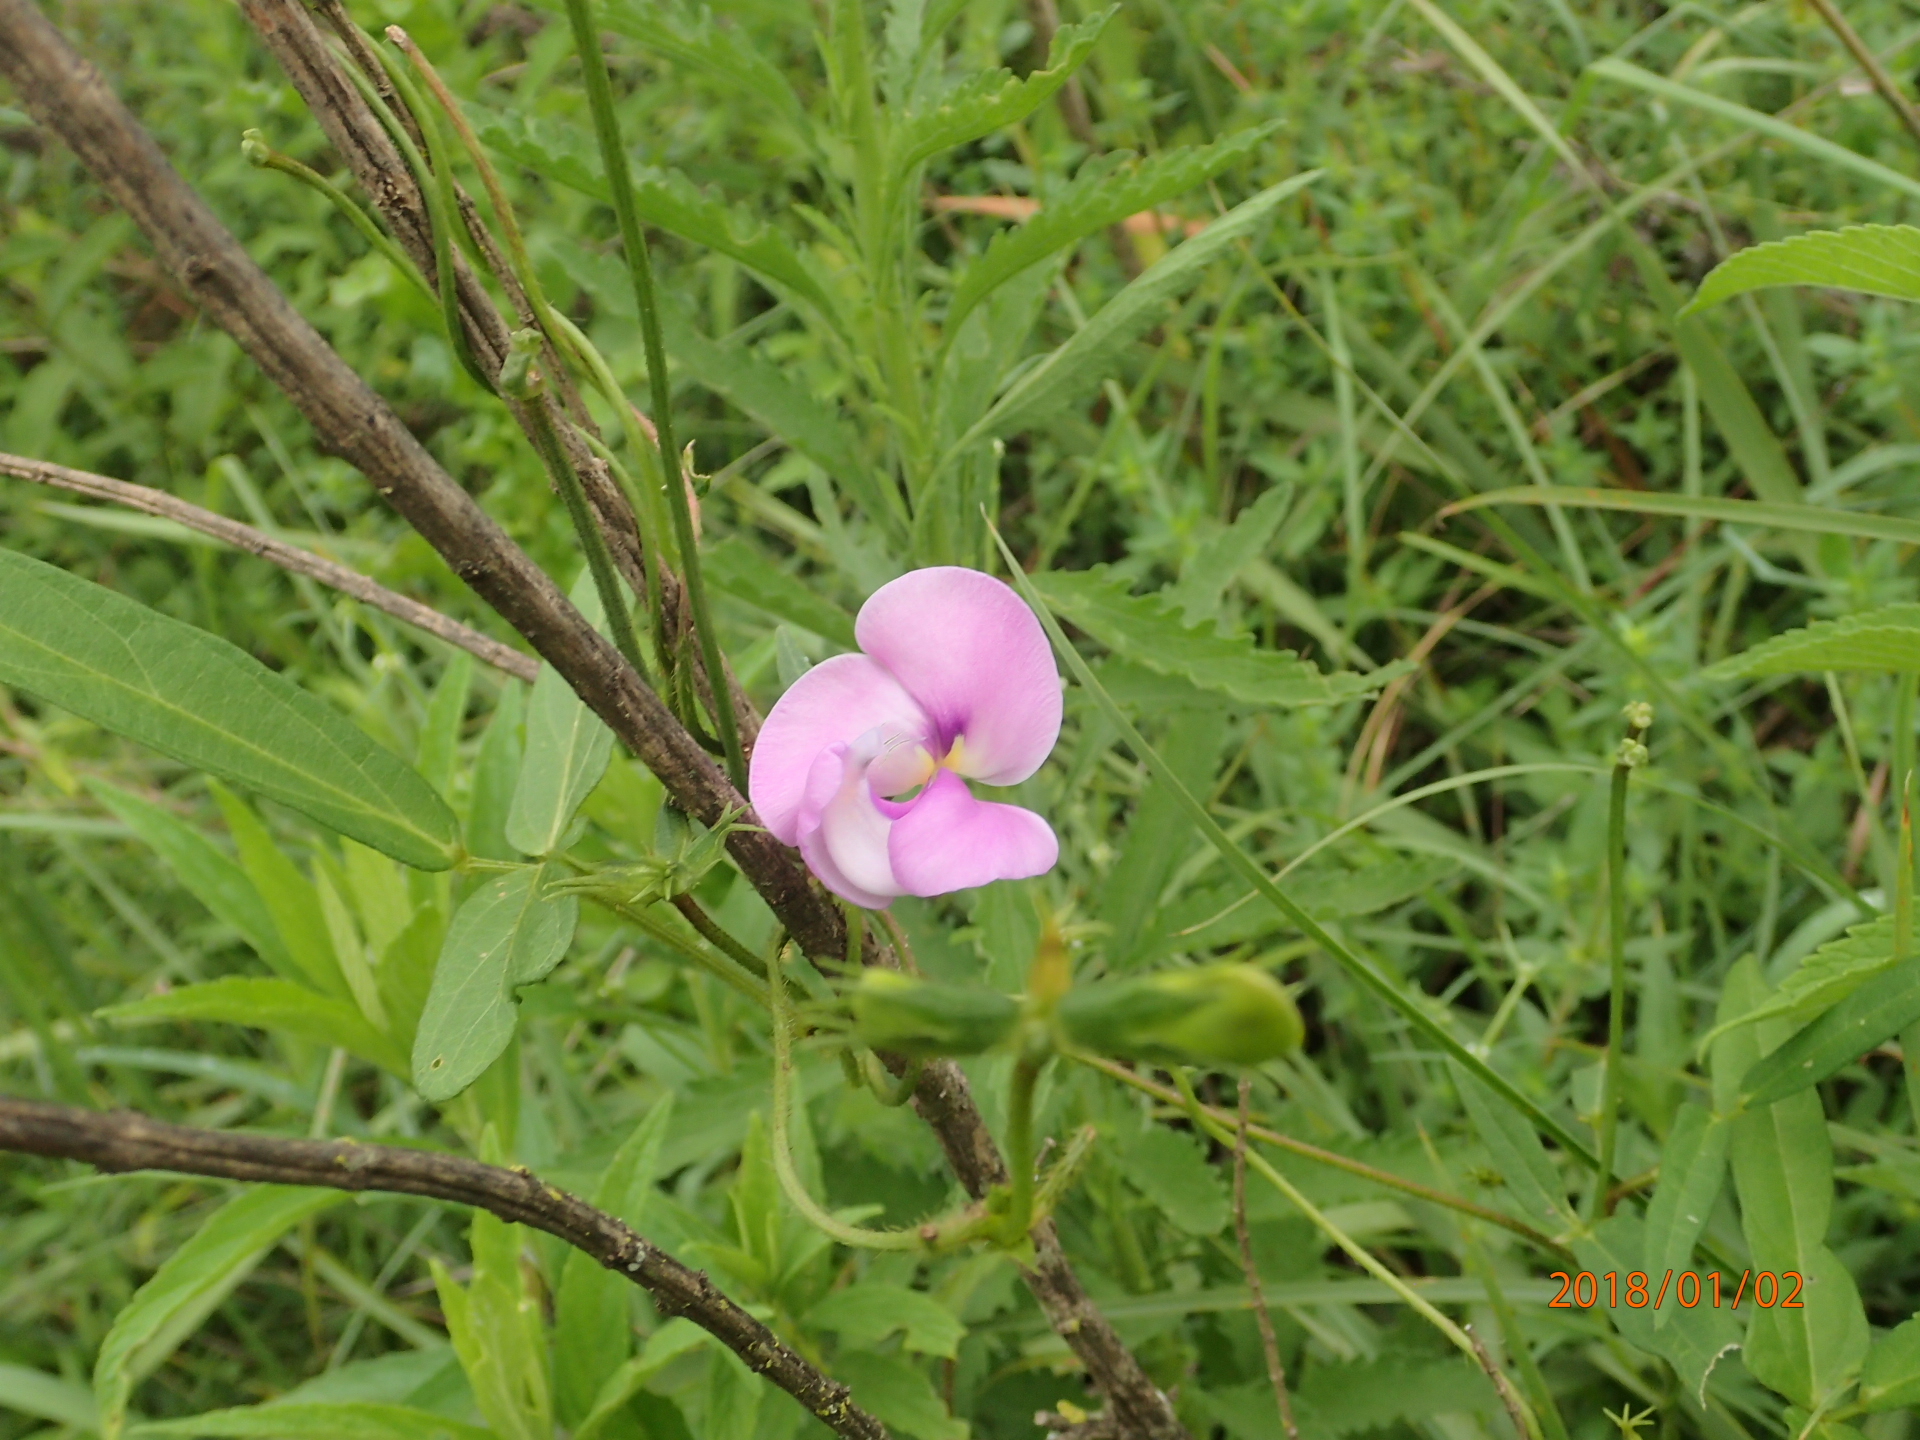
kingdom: Plantae
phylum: Tracheophyta
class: Magnoliopsida
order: Fabales
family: Fabaceae
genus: Vigna
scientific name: Vigna vexillata
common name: Zombi pea
